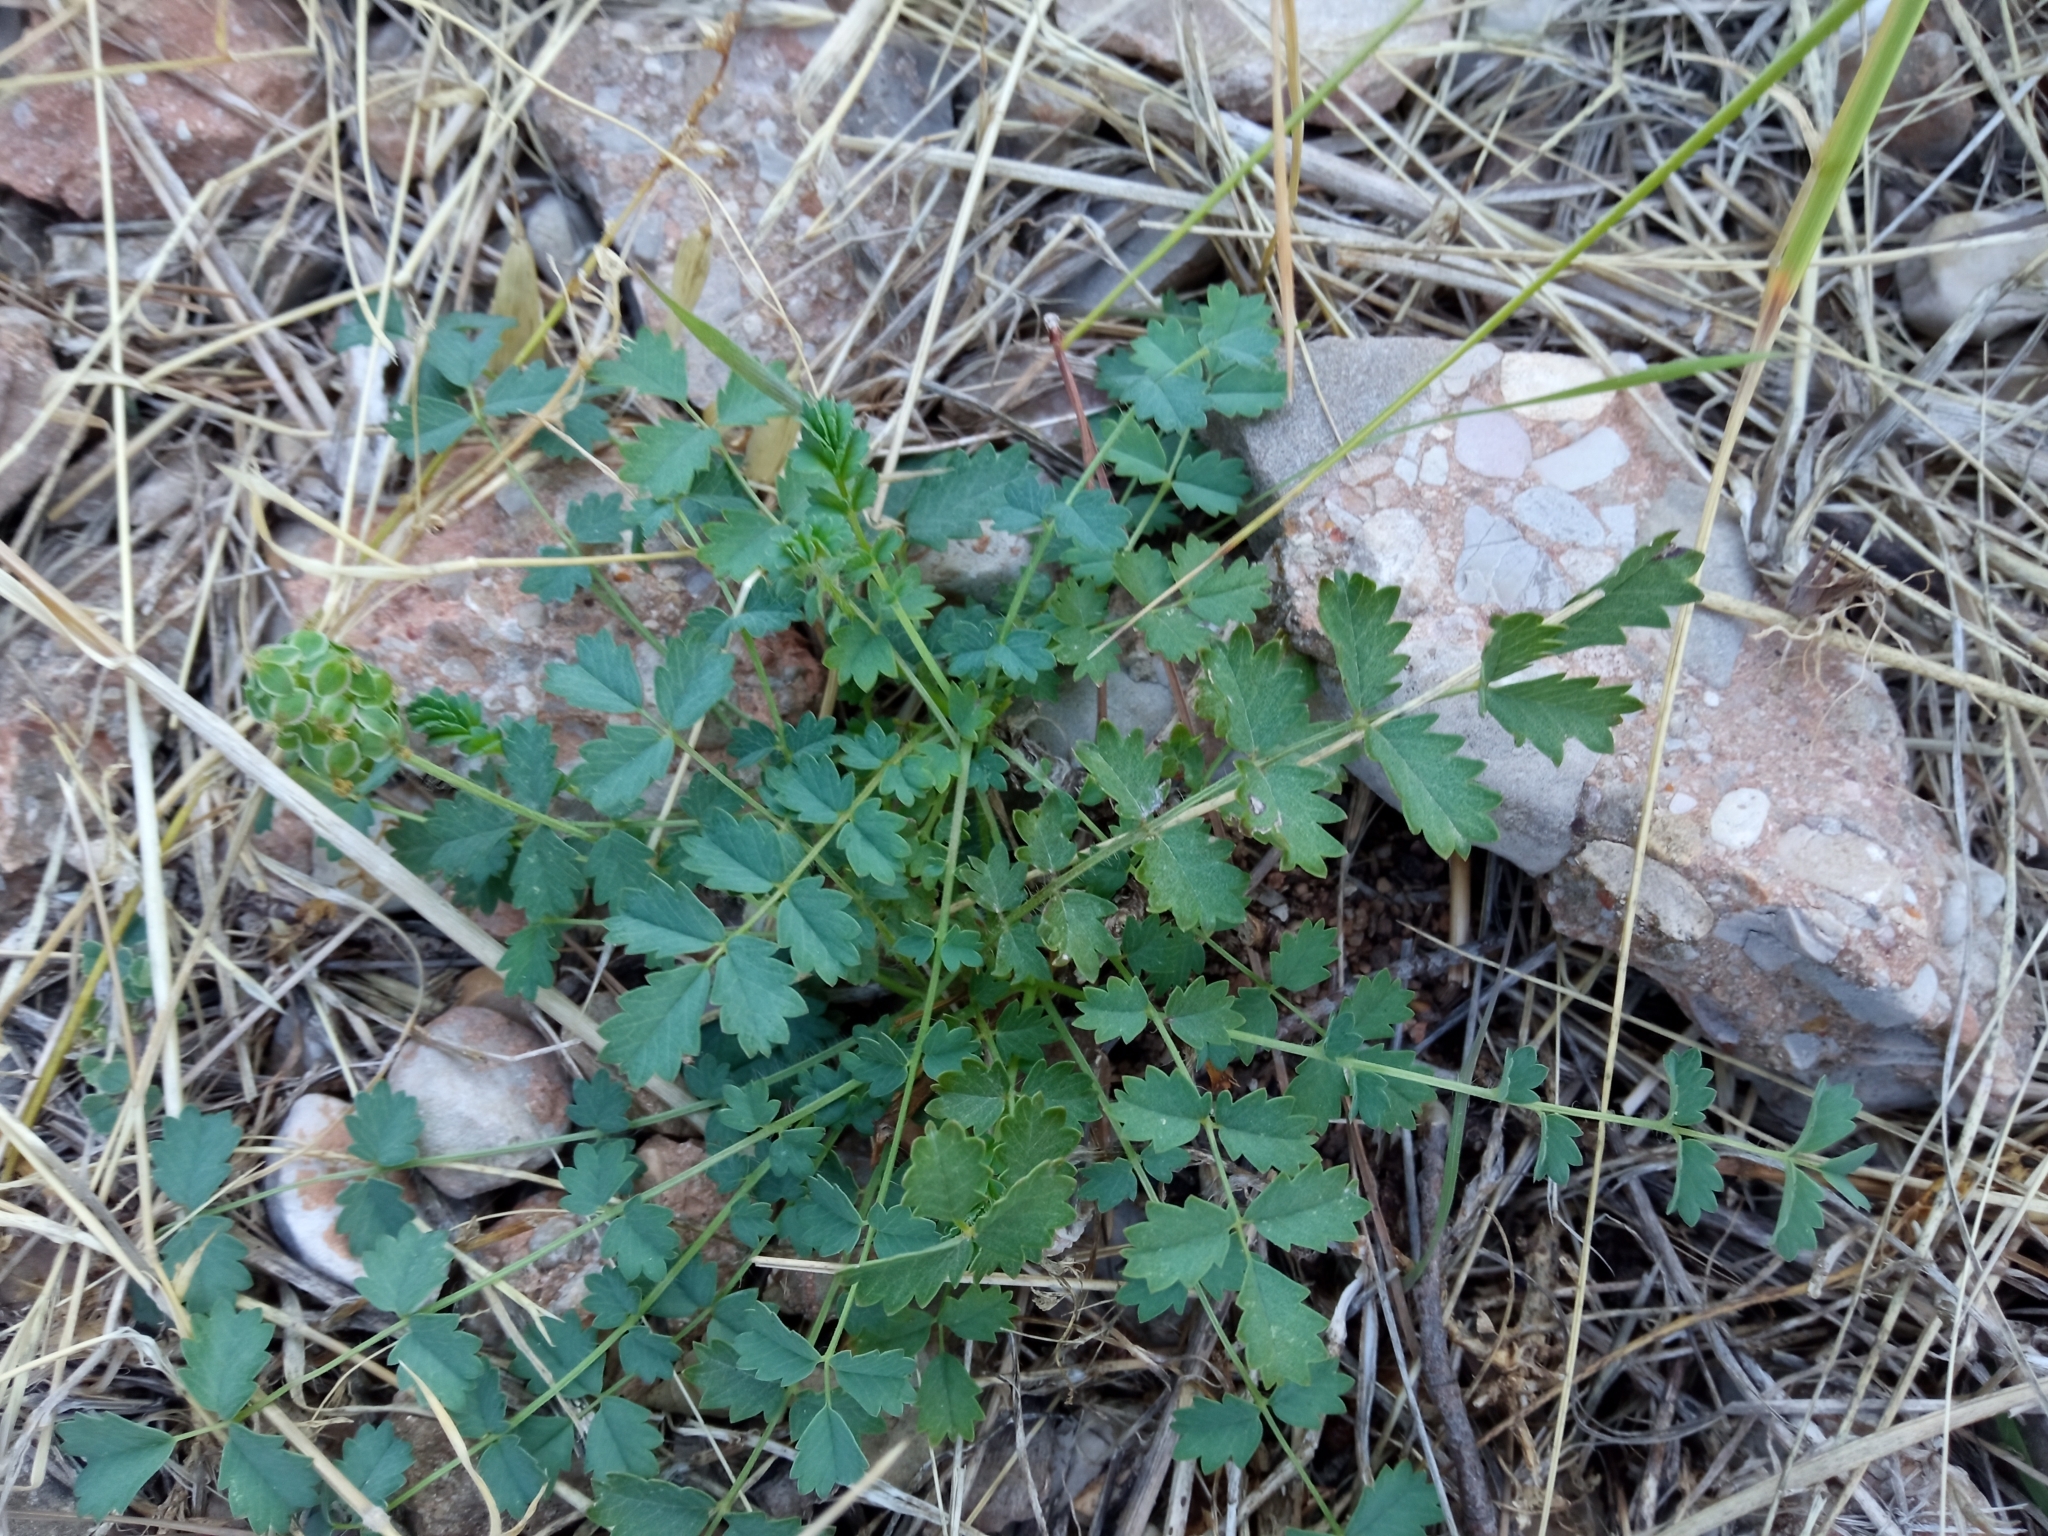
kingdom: Plantae
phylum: Tracheophyta
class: Magnoliopsida
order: Rosales
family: Rosaceae
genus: Poterium
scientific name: Poterium sanguisorba
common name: Salad burnet
